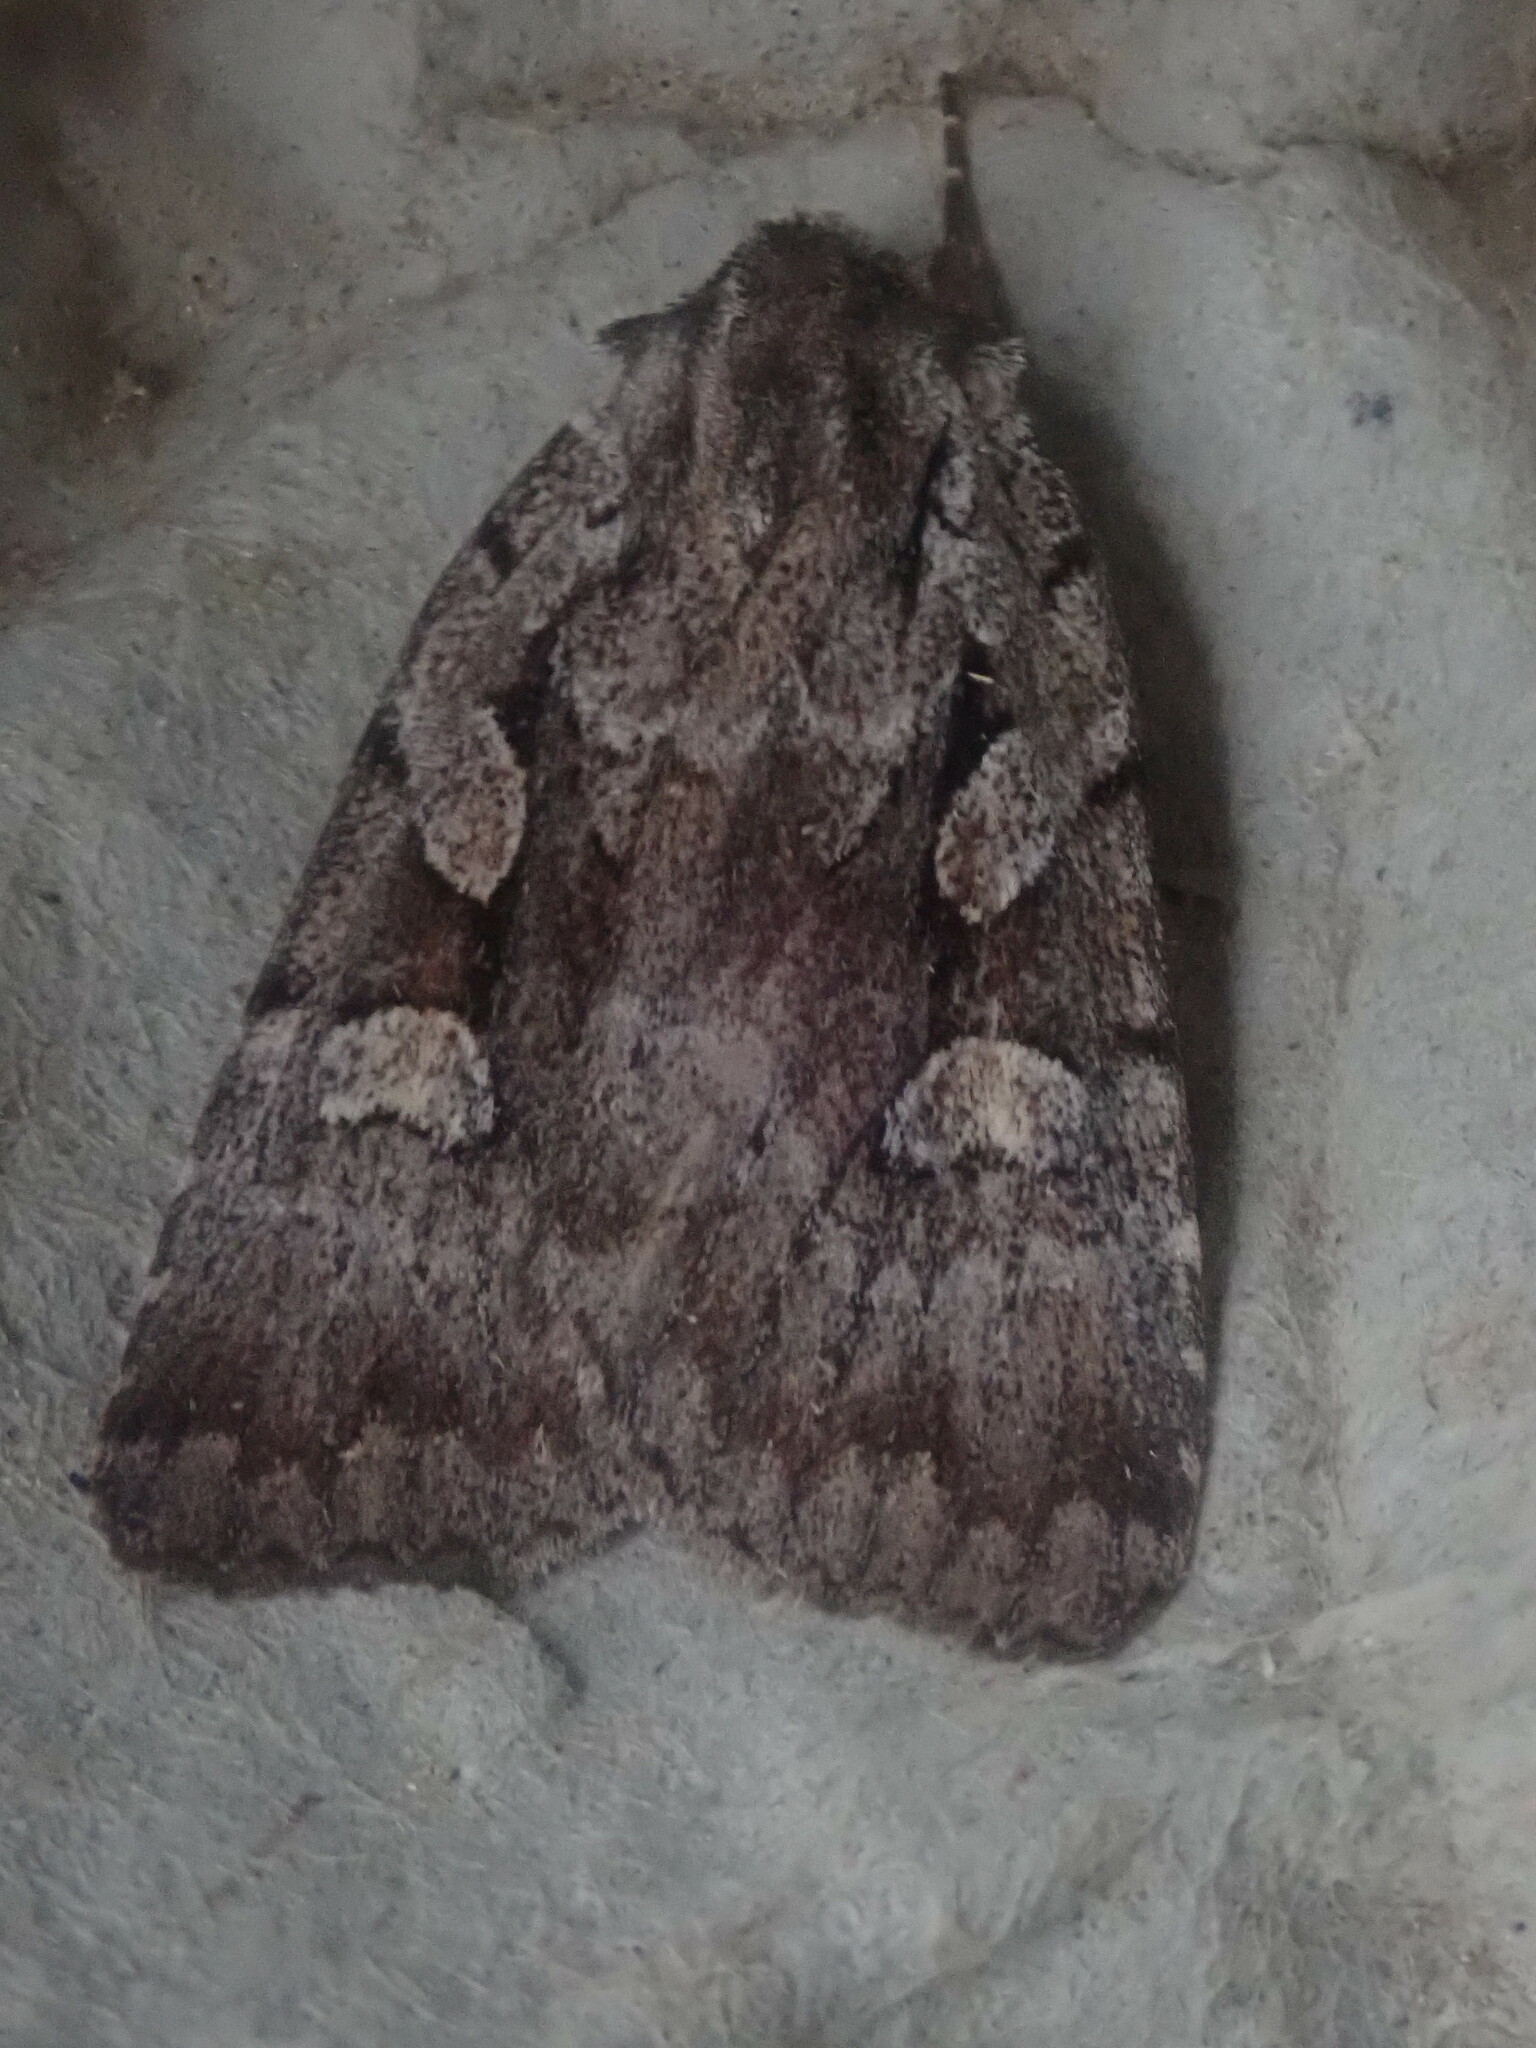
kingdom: Animalia
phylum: Arthropoda
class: Insecta
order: Lepidoptera
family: Noctuidae
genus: Xestia
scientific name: Xestia badicollis
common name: Northern variable dart
